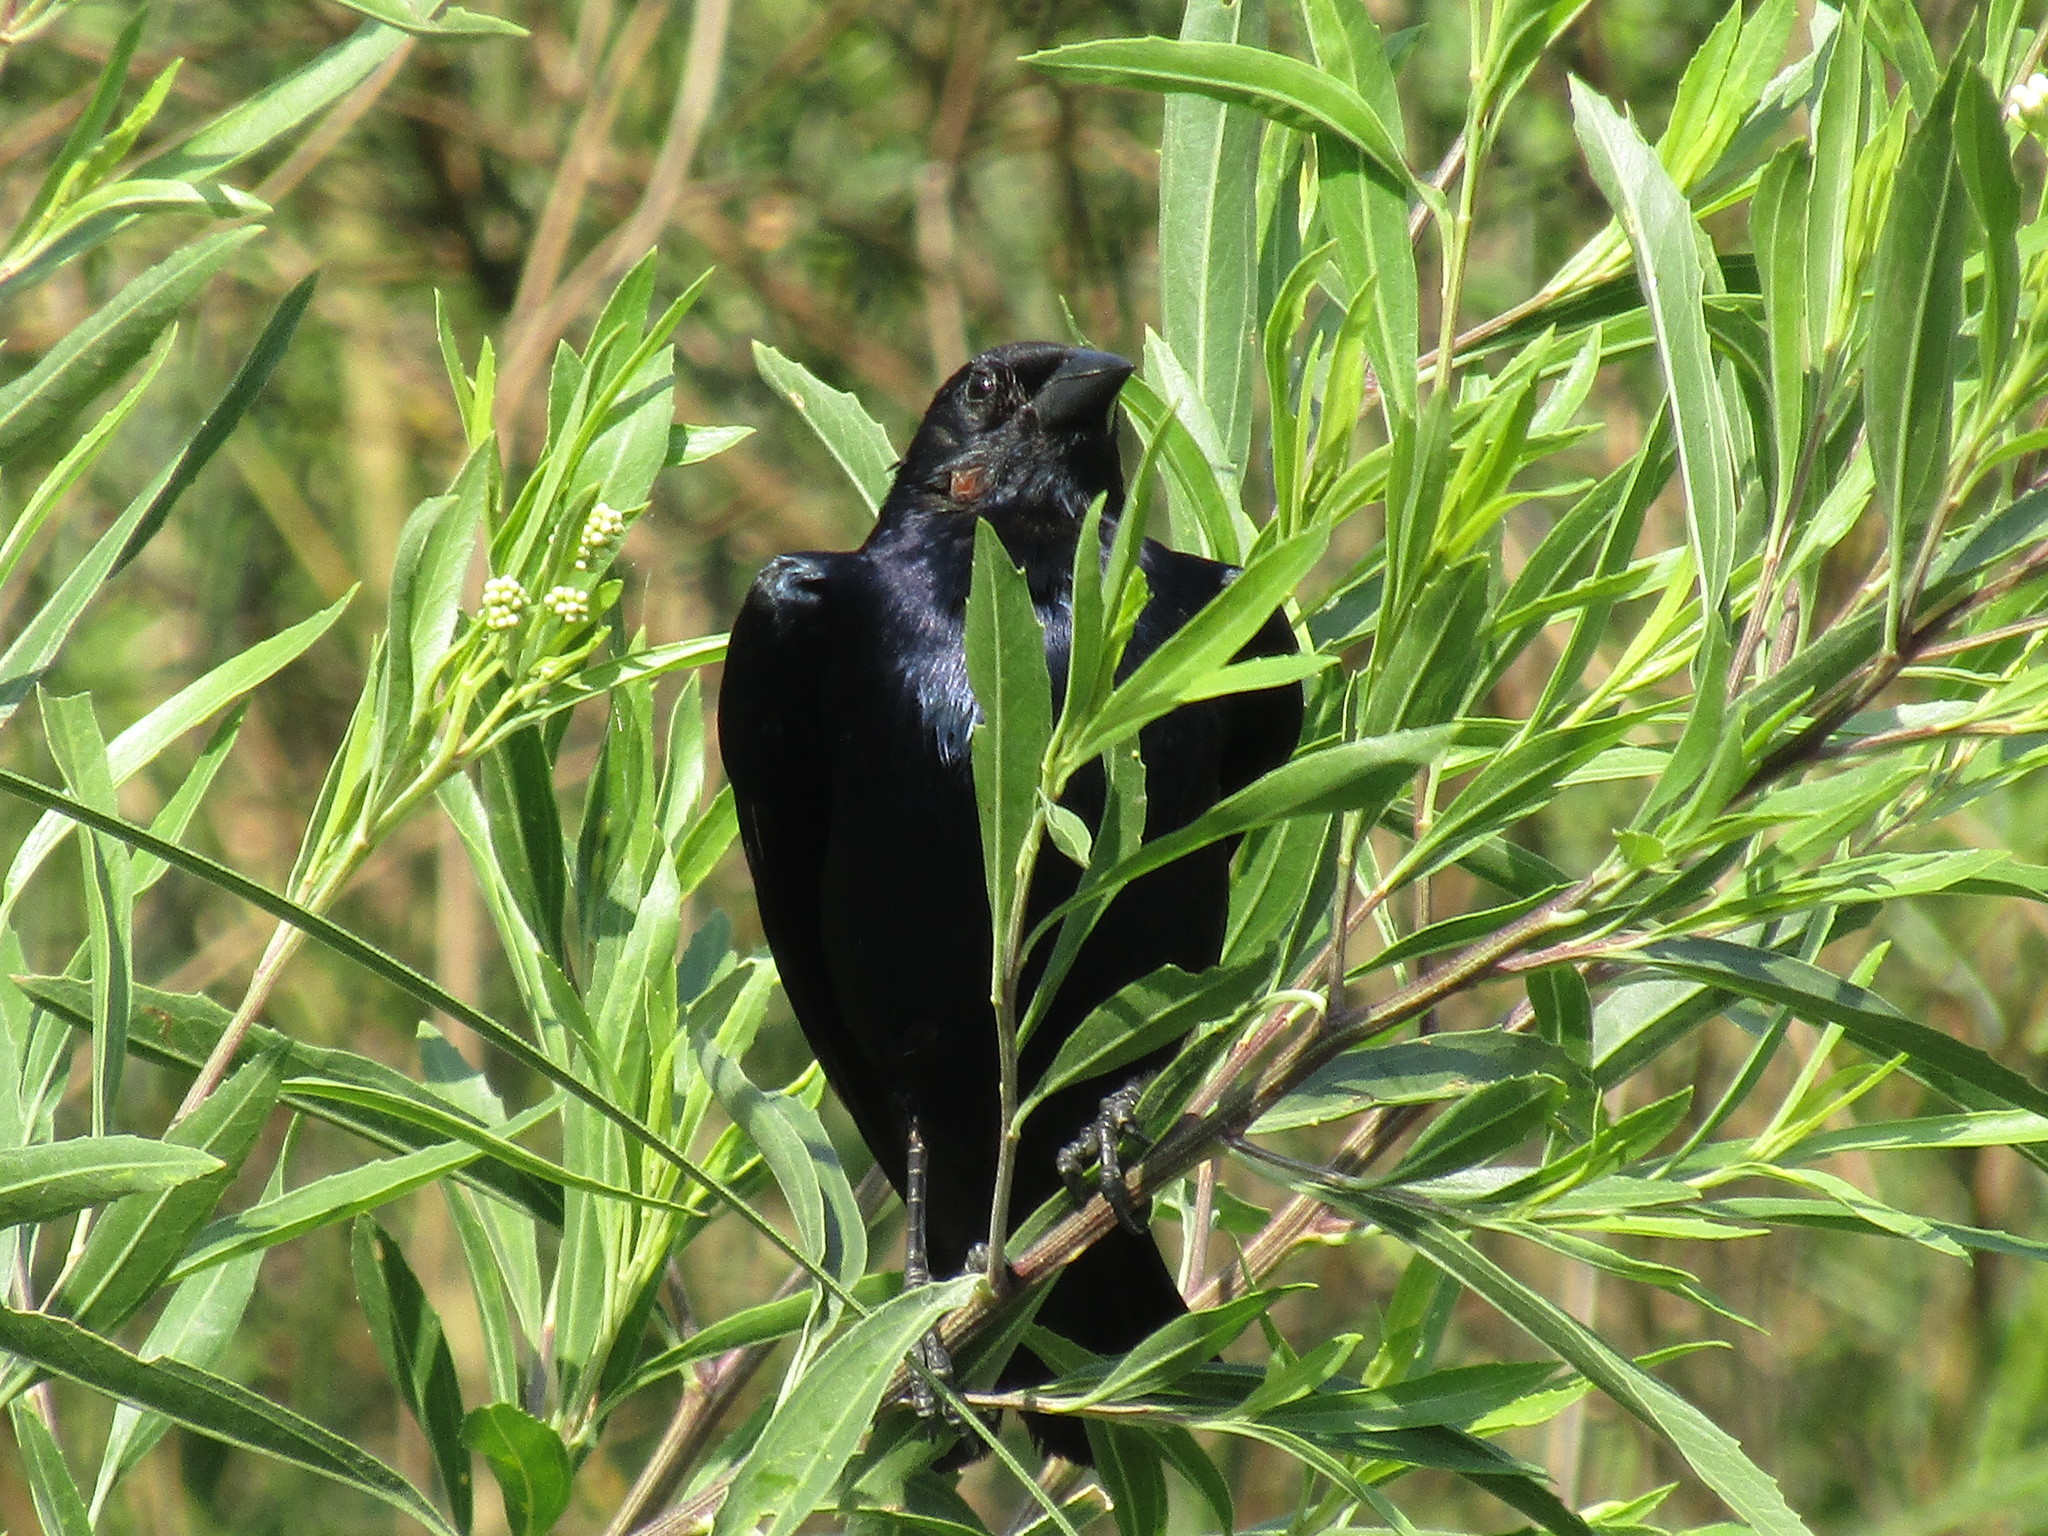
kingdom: Animalia
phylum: Chordata
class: Aves
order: Passeriformes
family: Icteridae
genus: Molothrus
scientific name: Molothrus bonariensis
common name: Shiny cowbird
